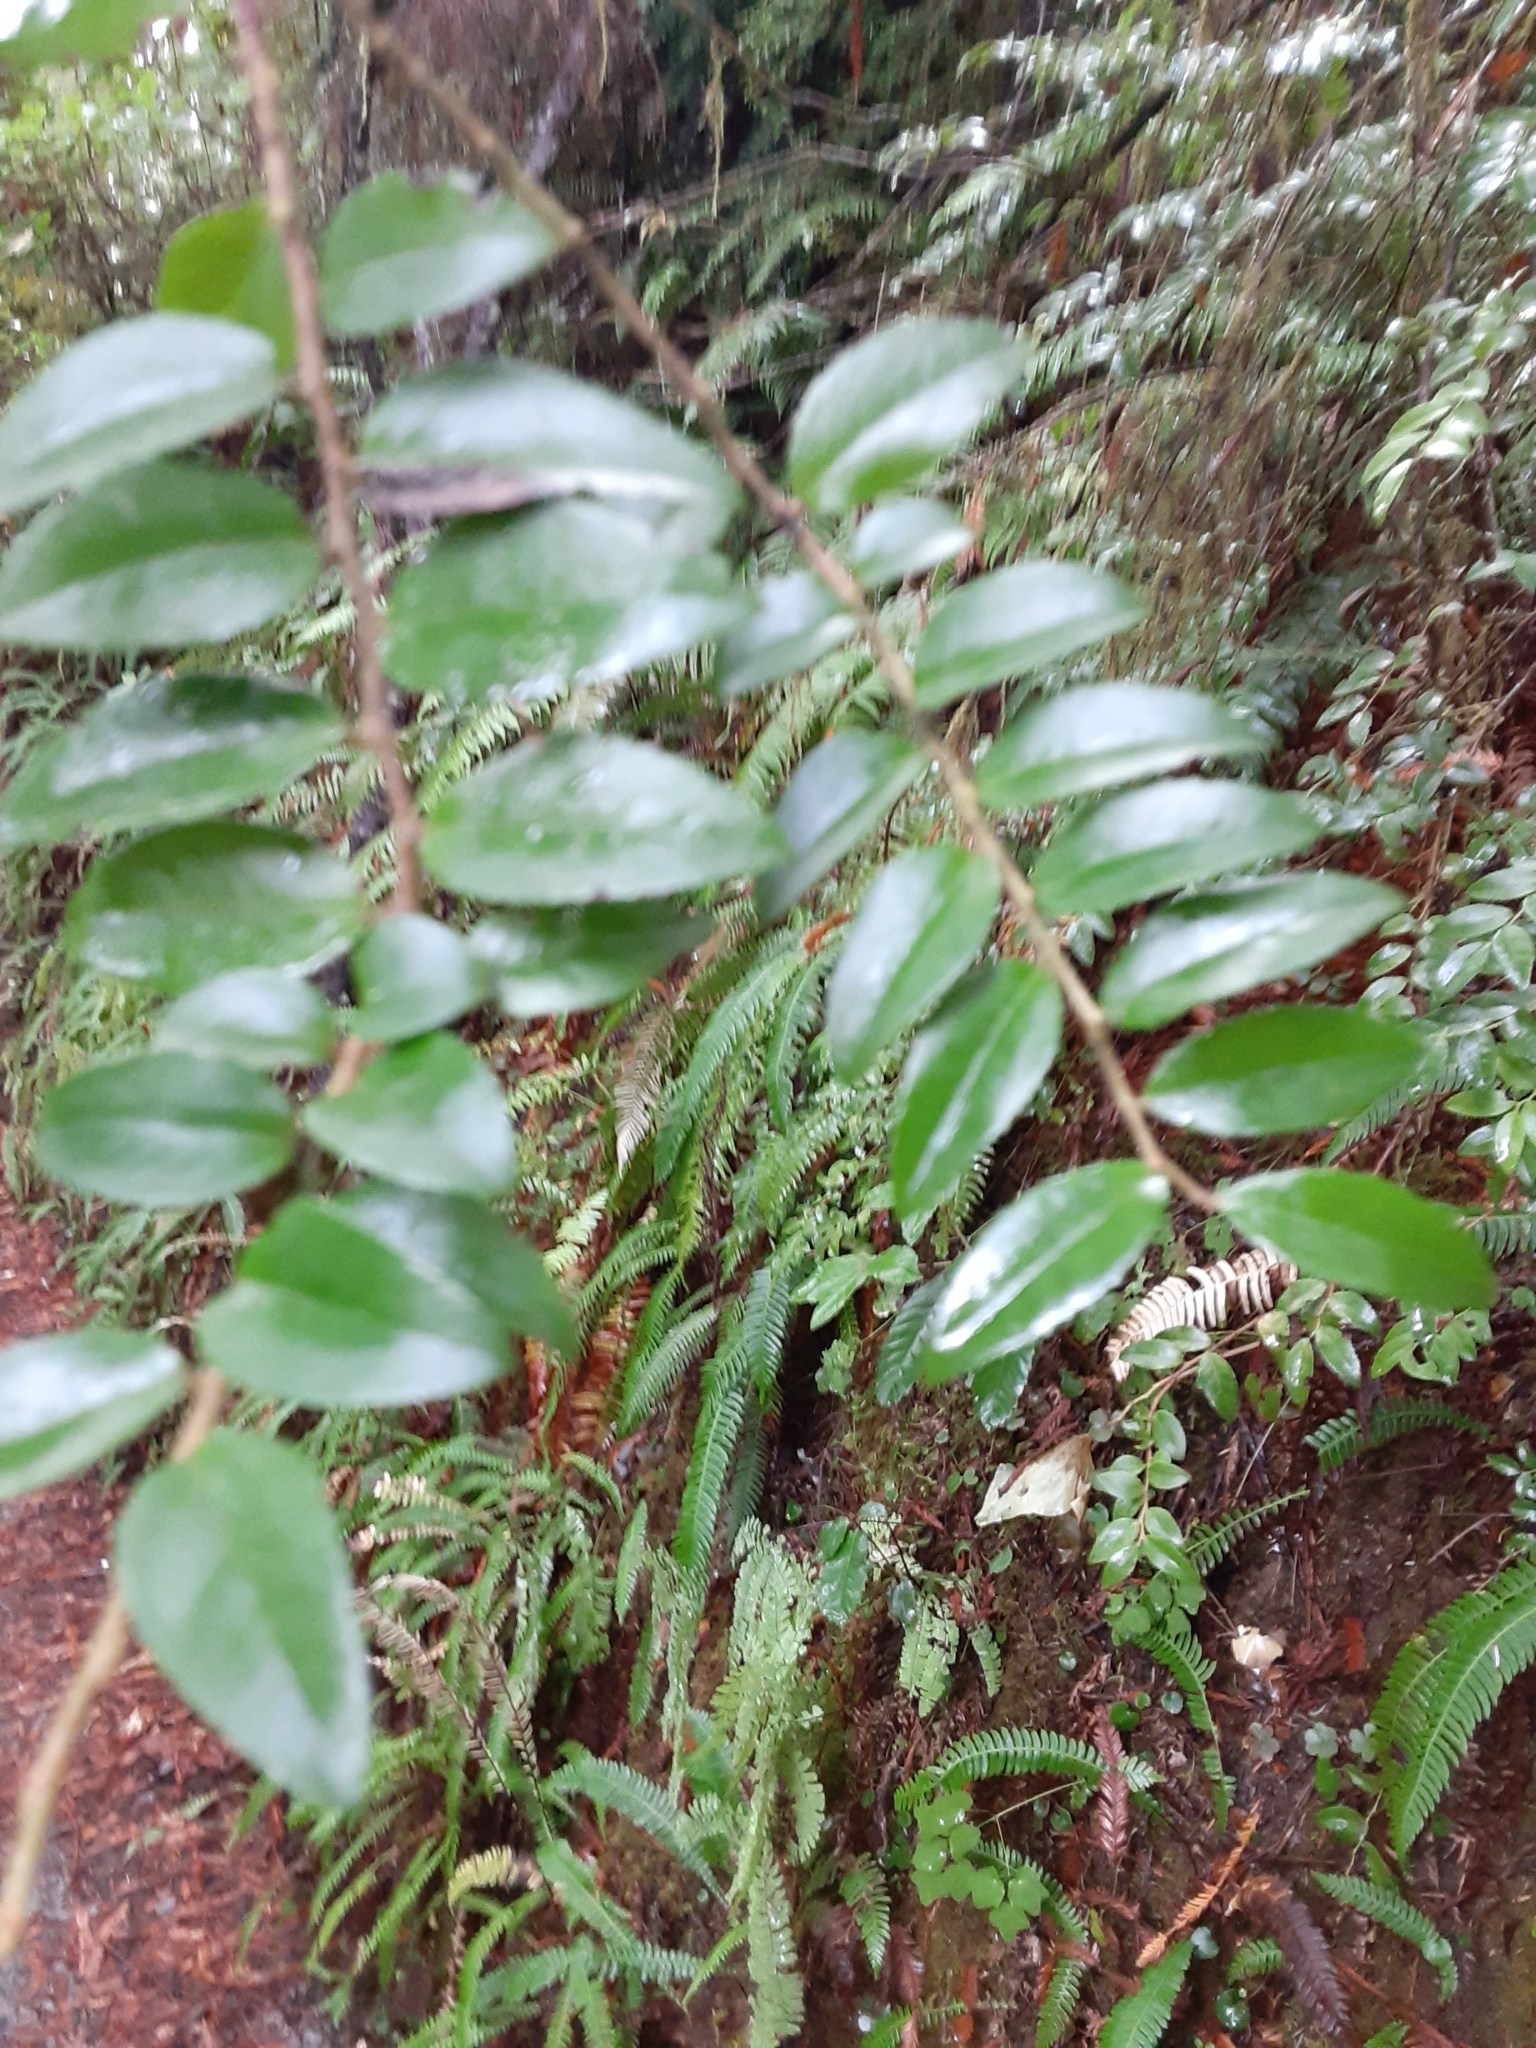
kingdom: Plantae
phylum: Tracheophyta
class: Magnoliopsida
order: Ericales
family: Ericaceae
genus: Vaccinium
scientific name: Vaccinium ovatum
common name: California-huckleberry
